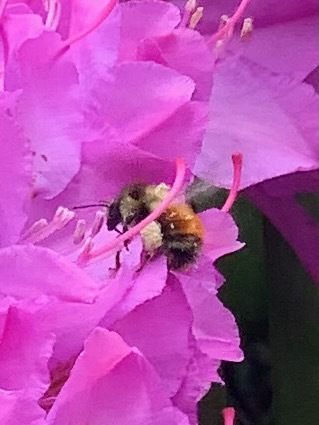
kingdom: Animalia
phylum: Arthropoda
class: Insecta
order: Hymenoptera
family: Apidae
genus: Bombus
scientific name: Bombus melanopygus
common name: Black tail bumble bee
